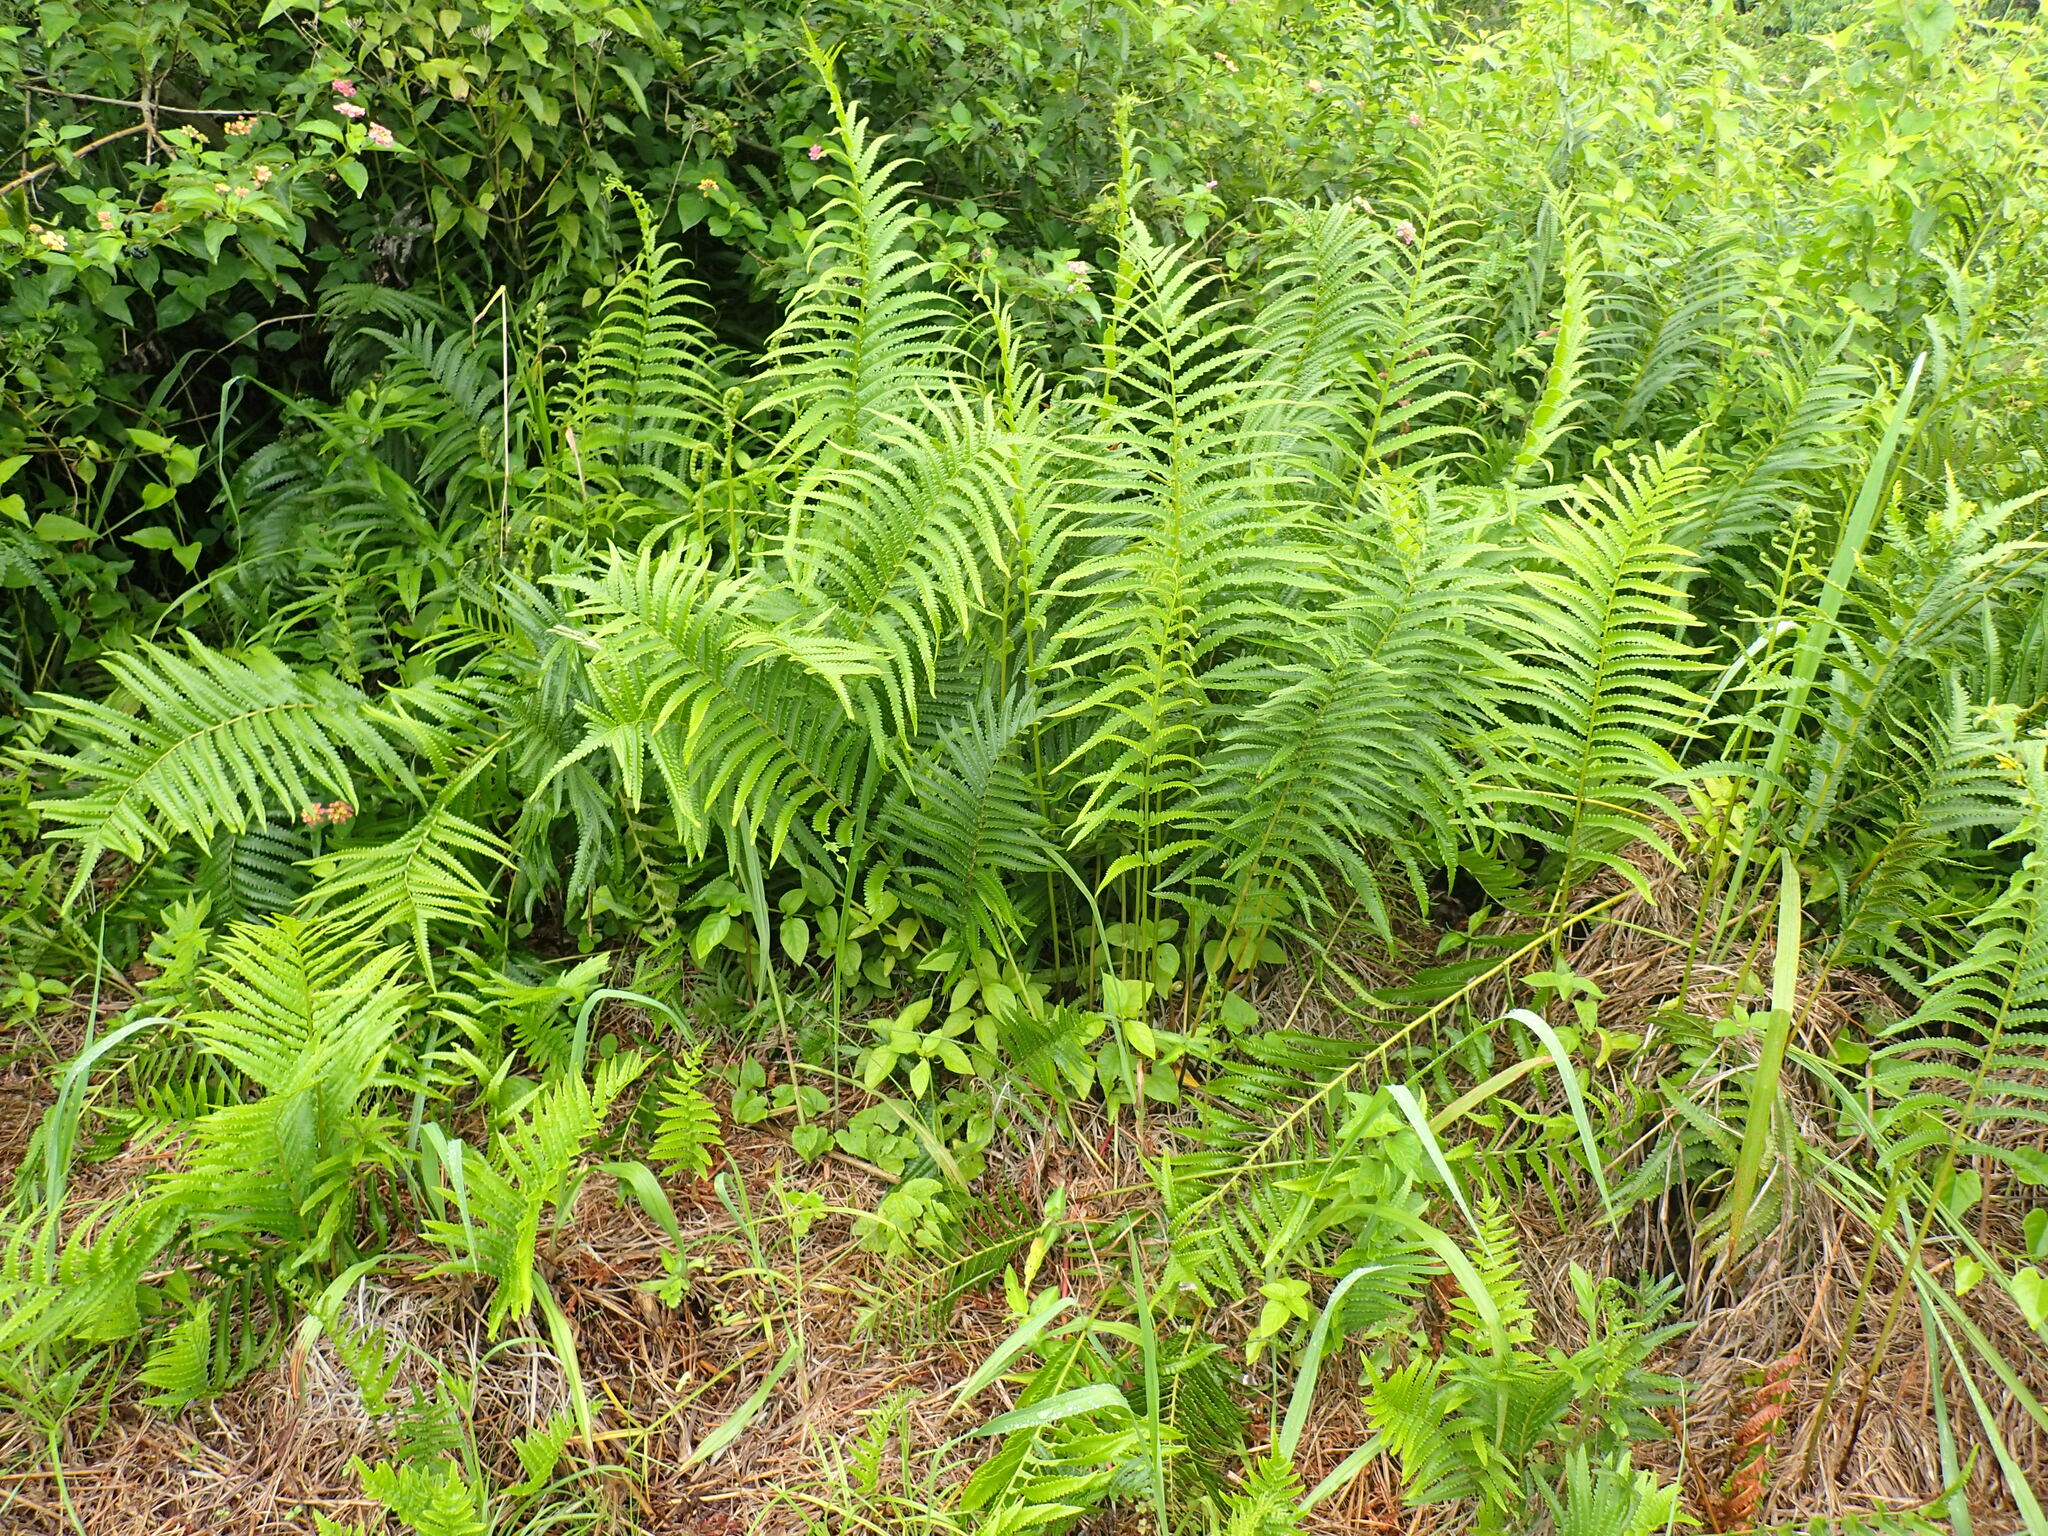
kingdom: Plantae
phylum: Tracheophyta
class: Polypodiopsida
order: Polypodiales
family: Thelypteridaceae
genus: Cyclosorus
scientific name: Cyclosorus interruptus
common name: Neke fern
